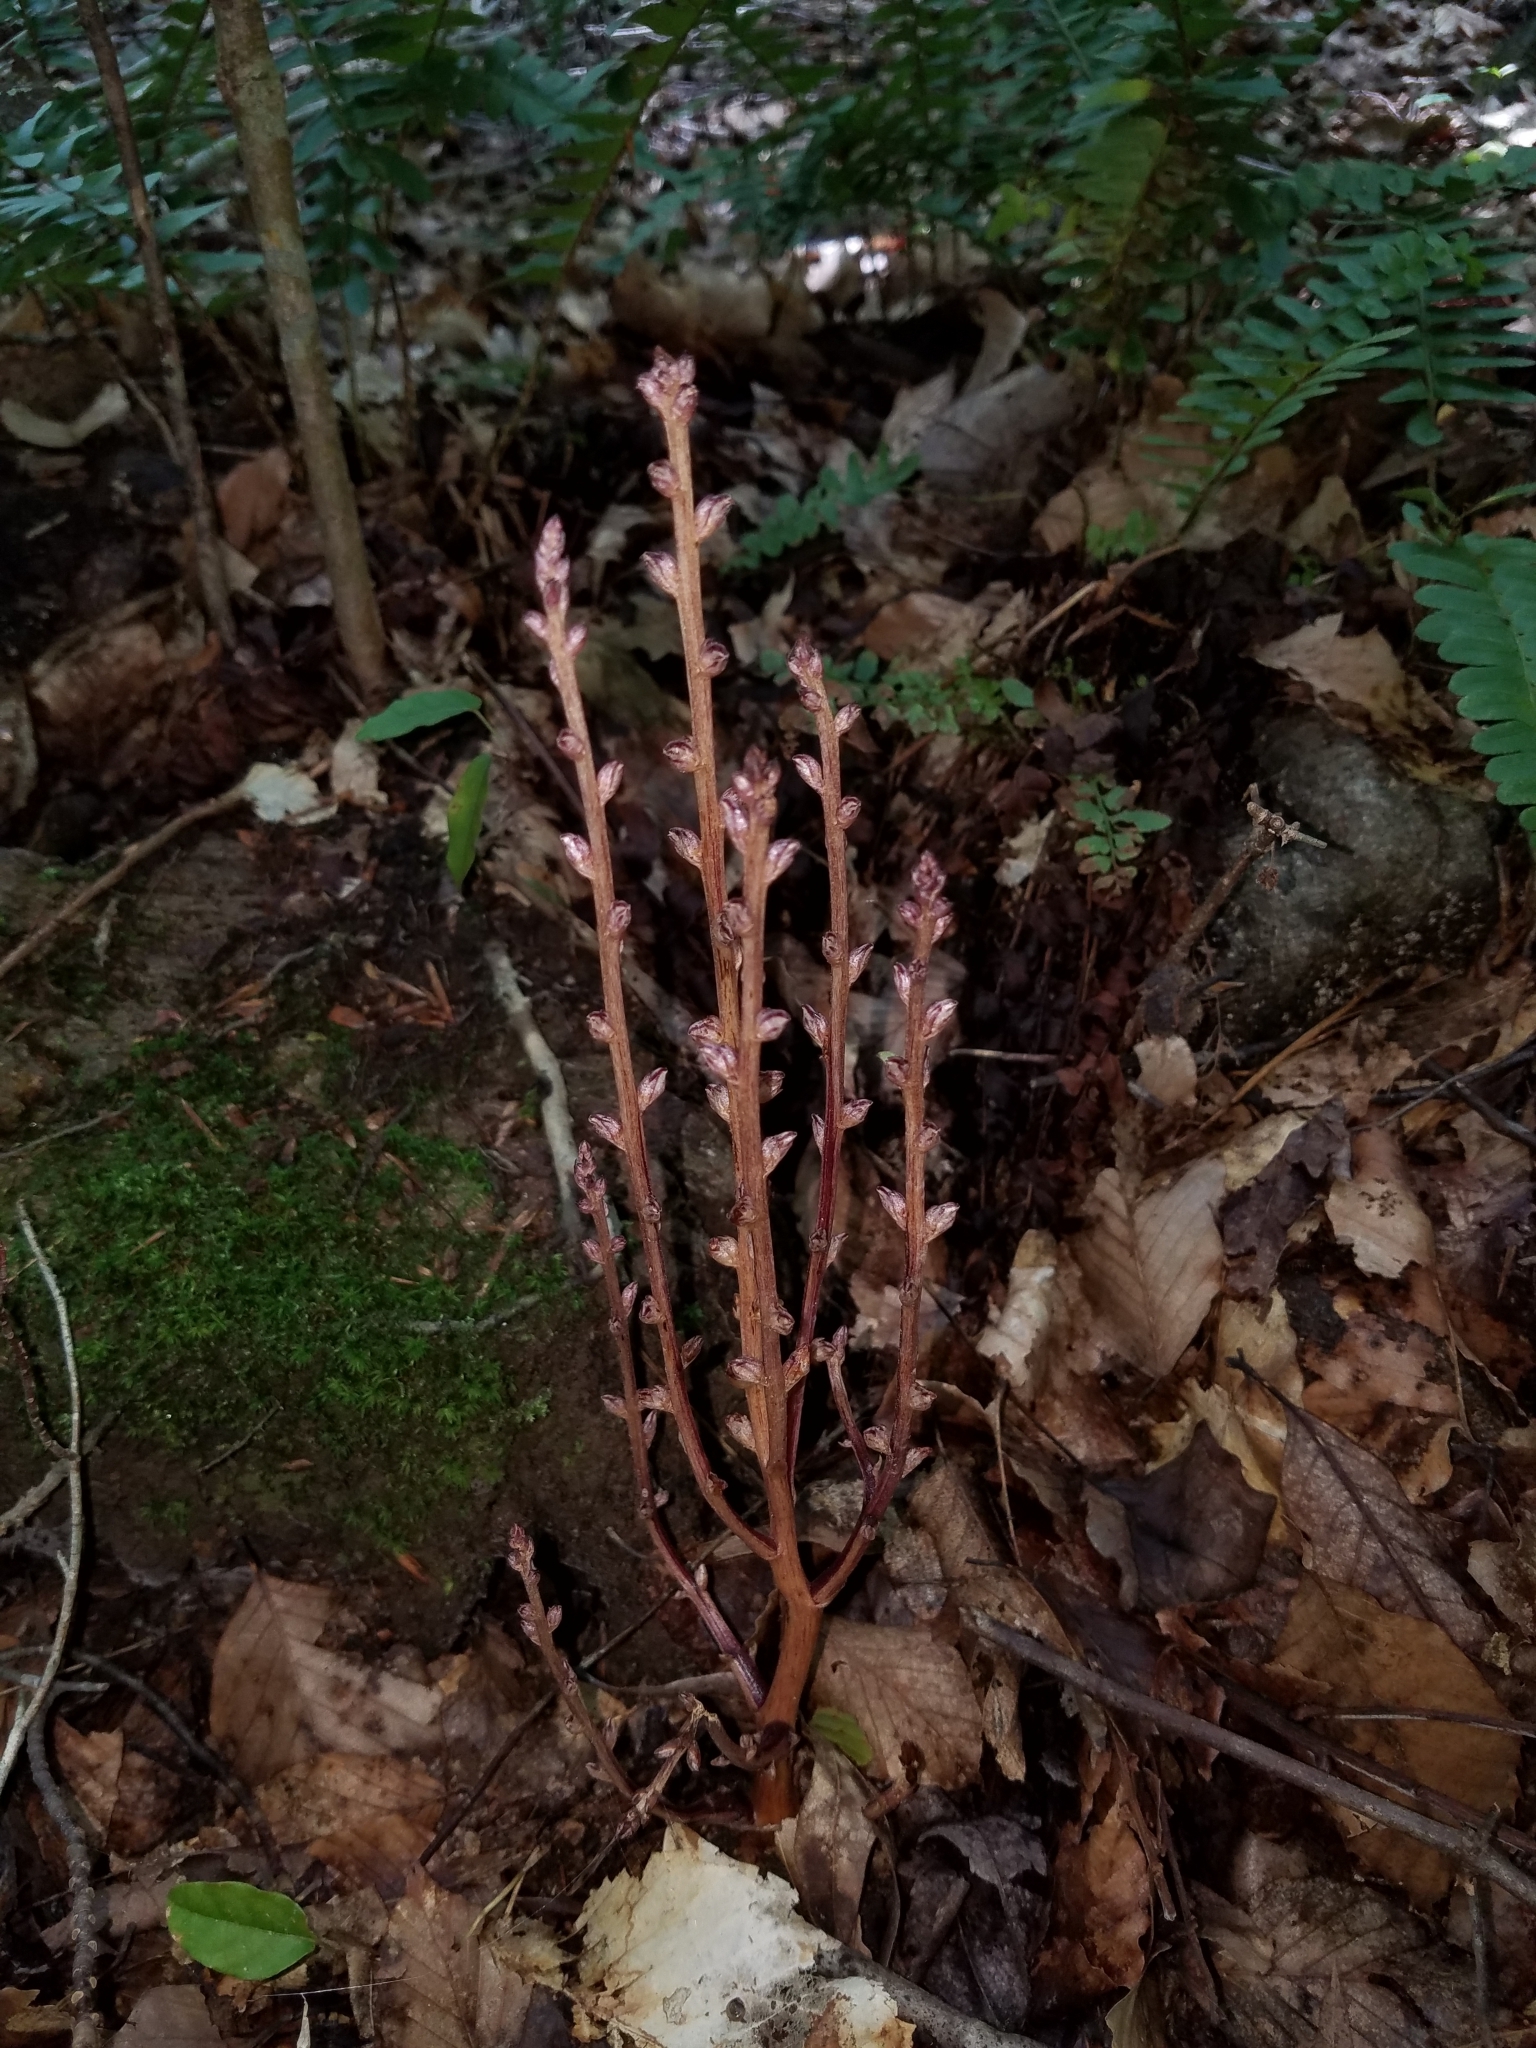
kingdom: Plantae
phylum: Tracheophyta
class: Magnoliopsida
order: Lamiales
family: Orobanchaceae
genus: Epifagus
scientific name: Epifagus virginiana
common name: Beechdrops
